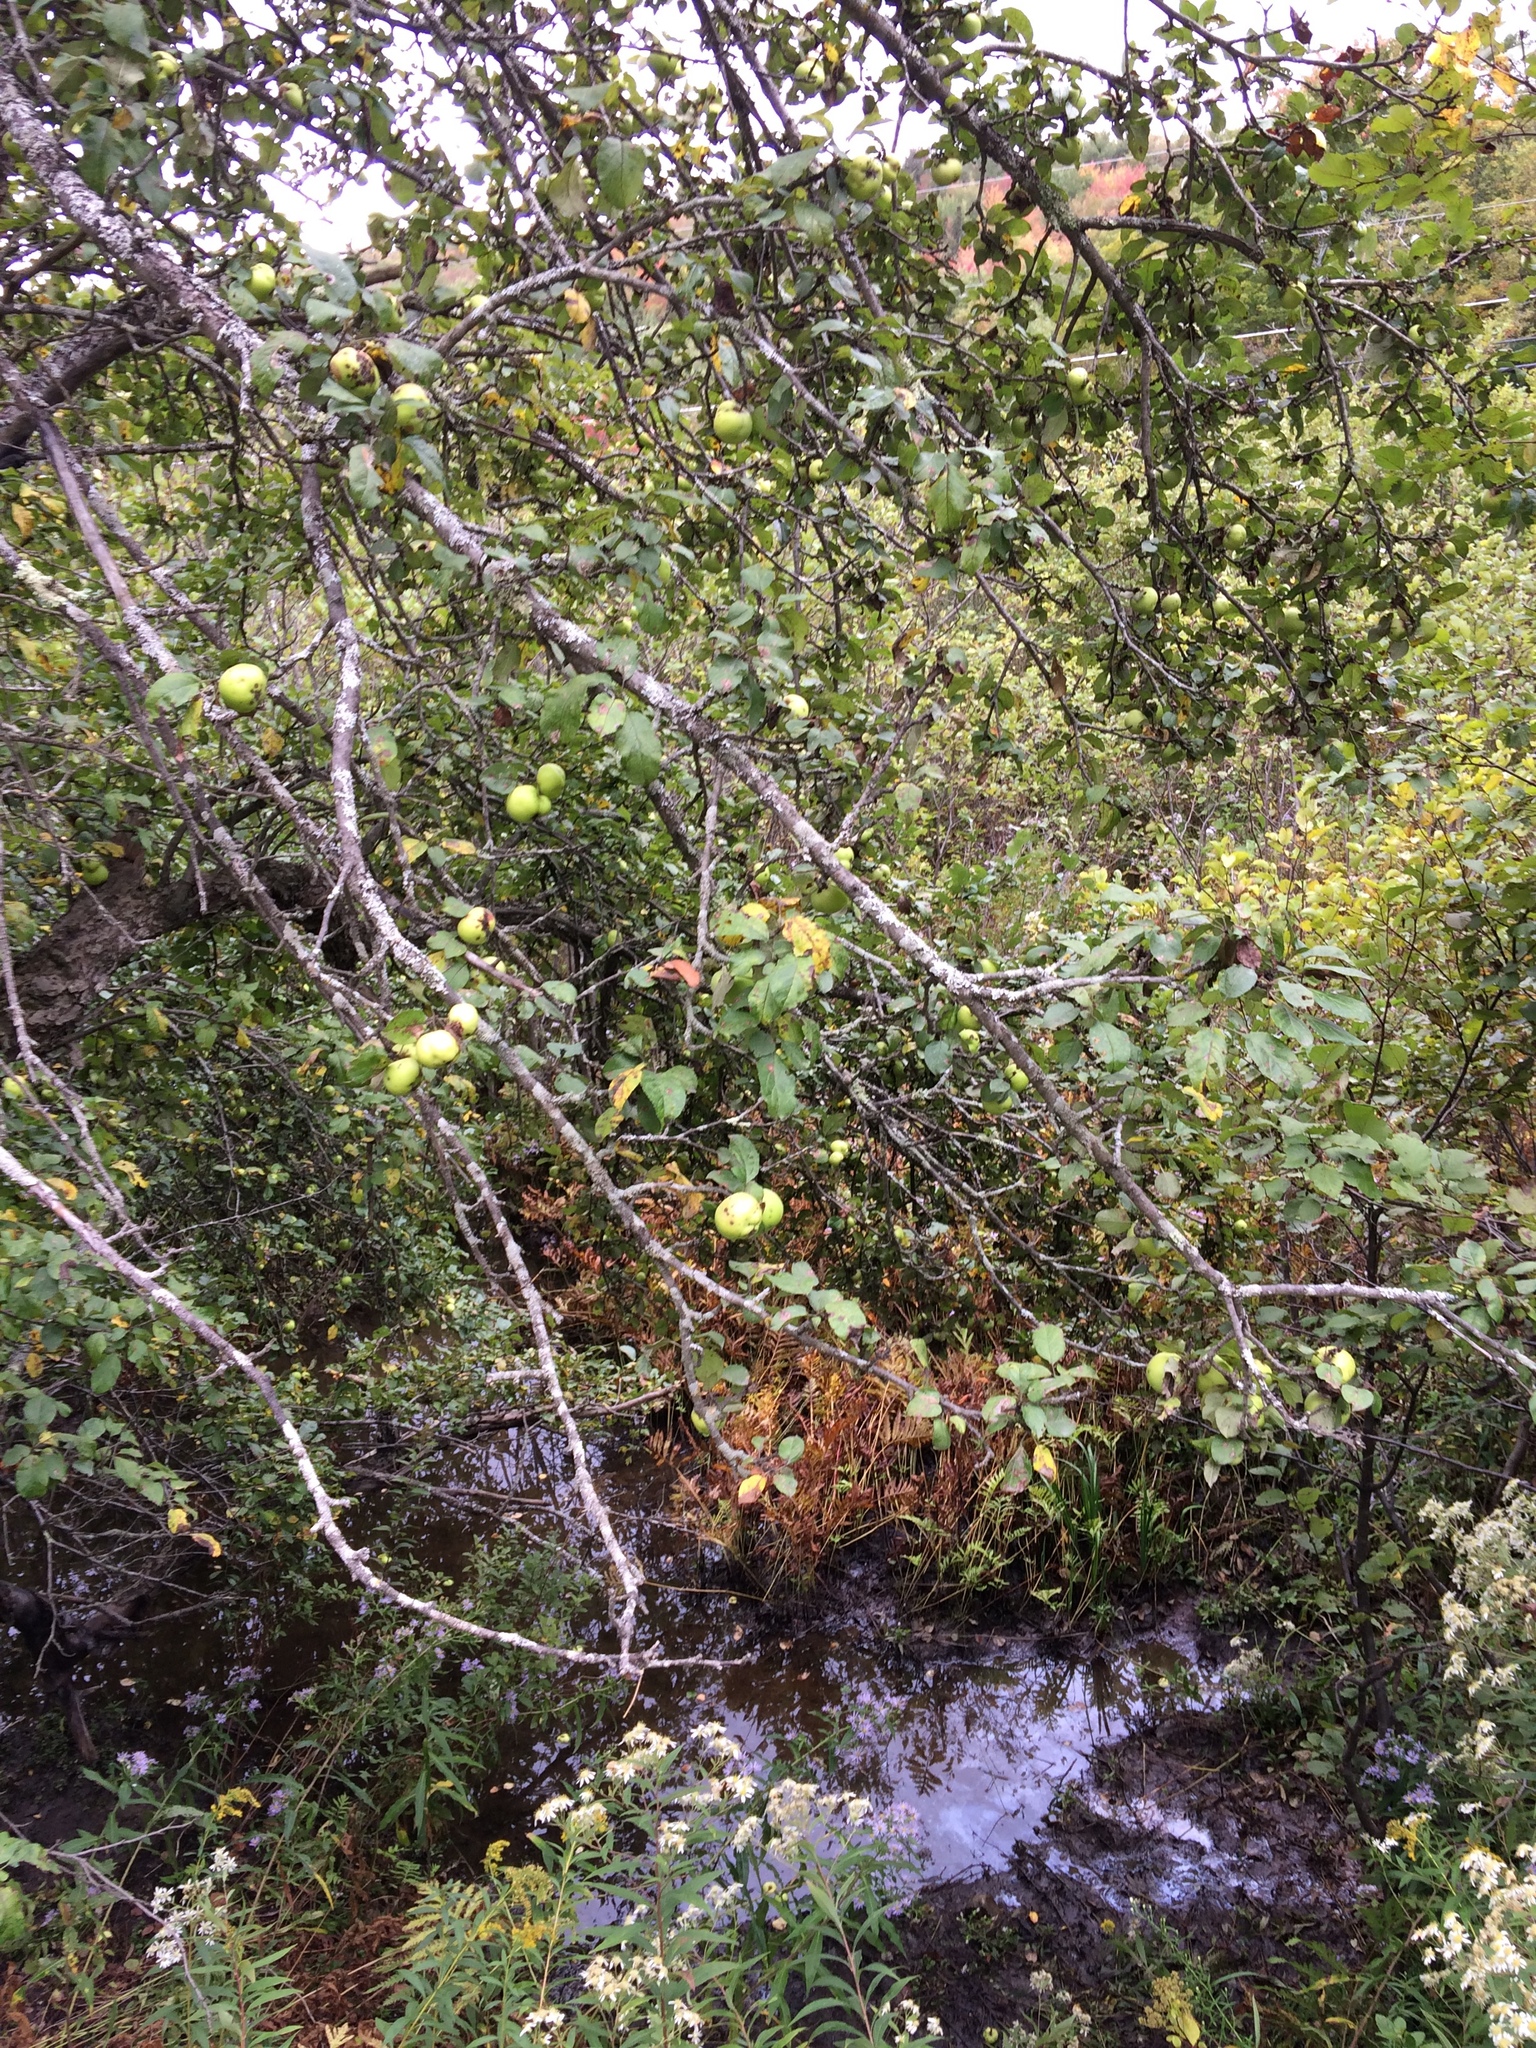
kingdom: Plantae
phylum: Tracheophyta
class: Magnoliopsida
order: Rosales
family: Rosaceae
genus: Malus
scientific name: Malus domestica
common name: Apple
